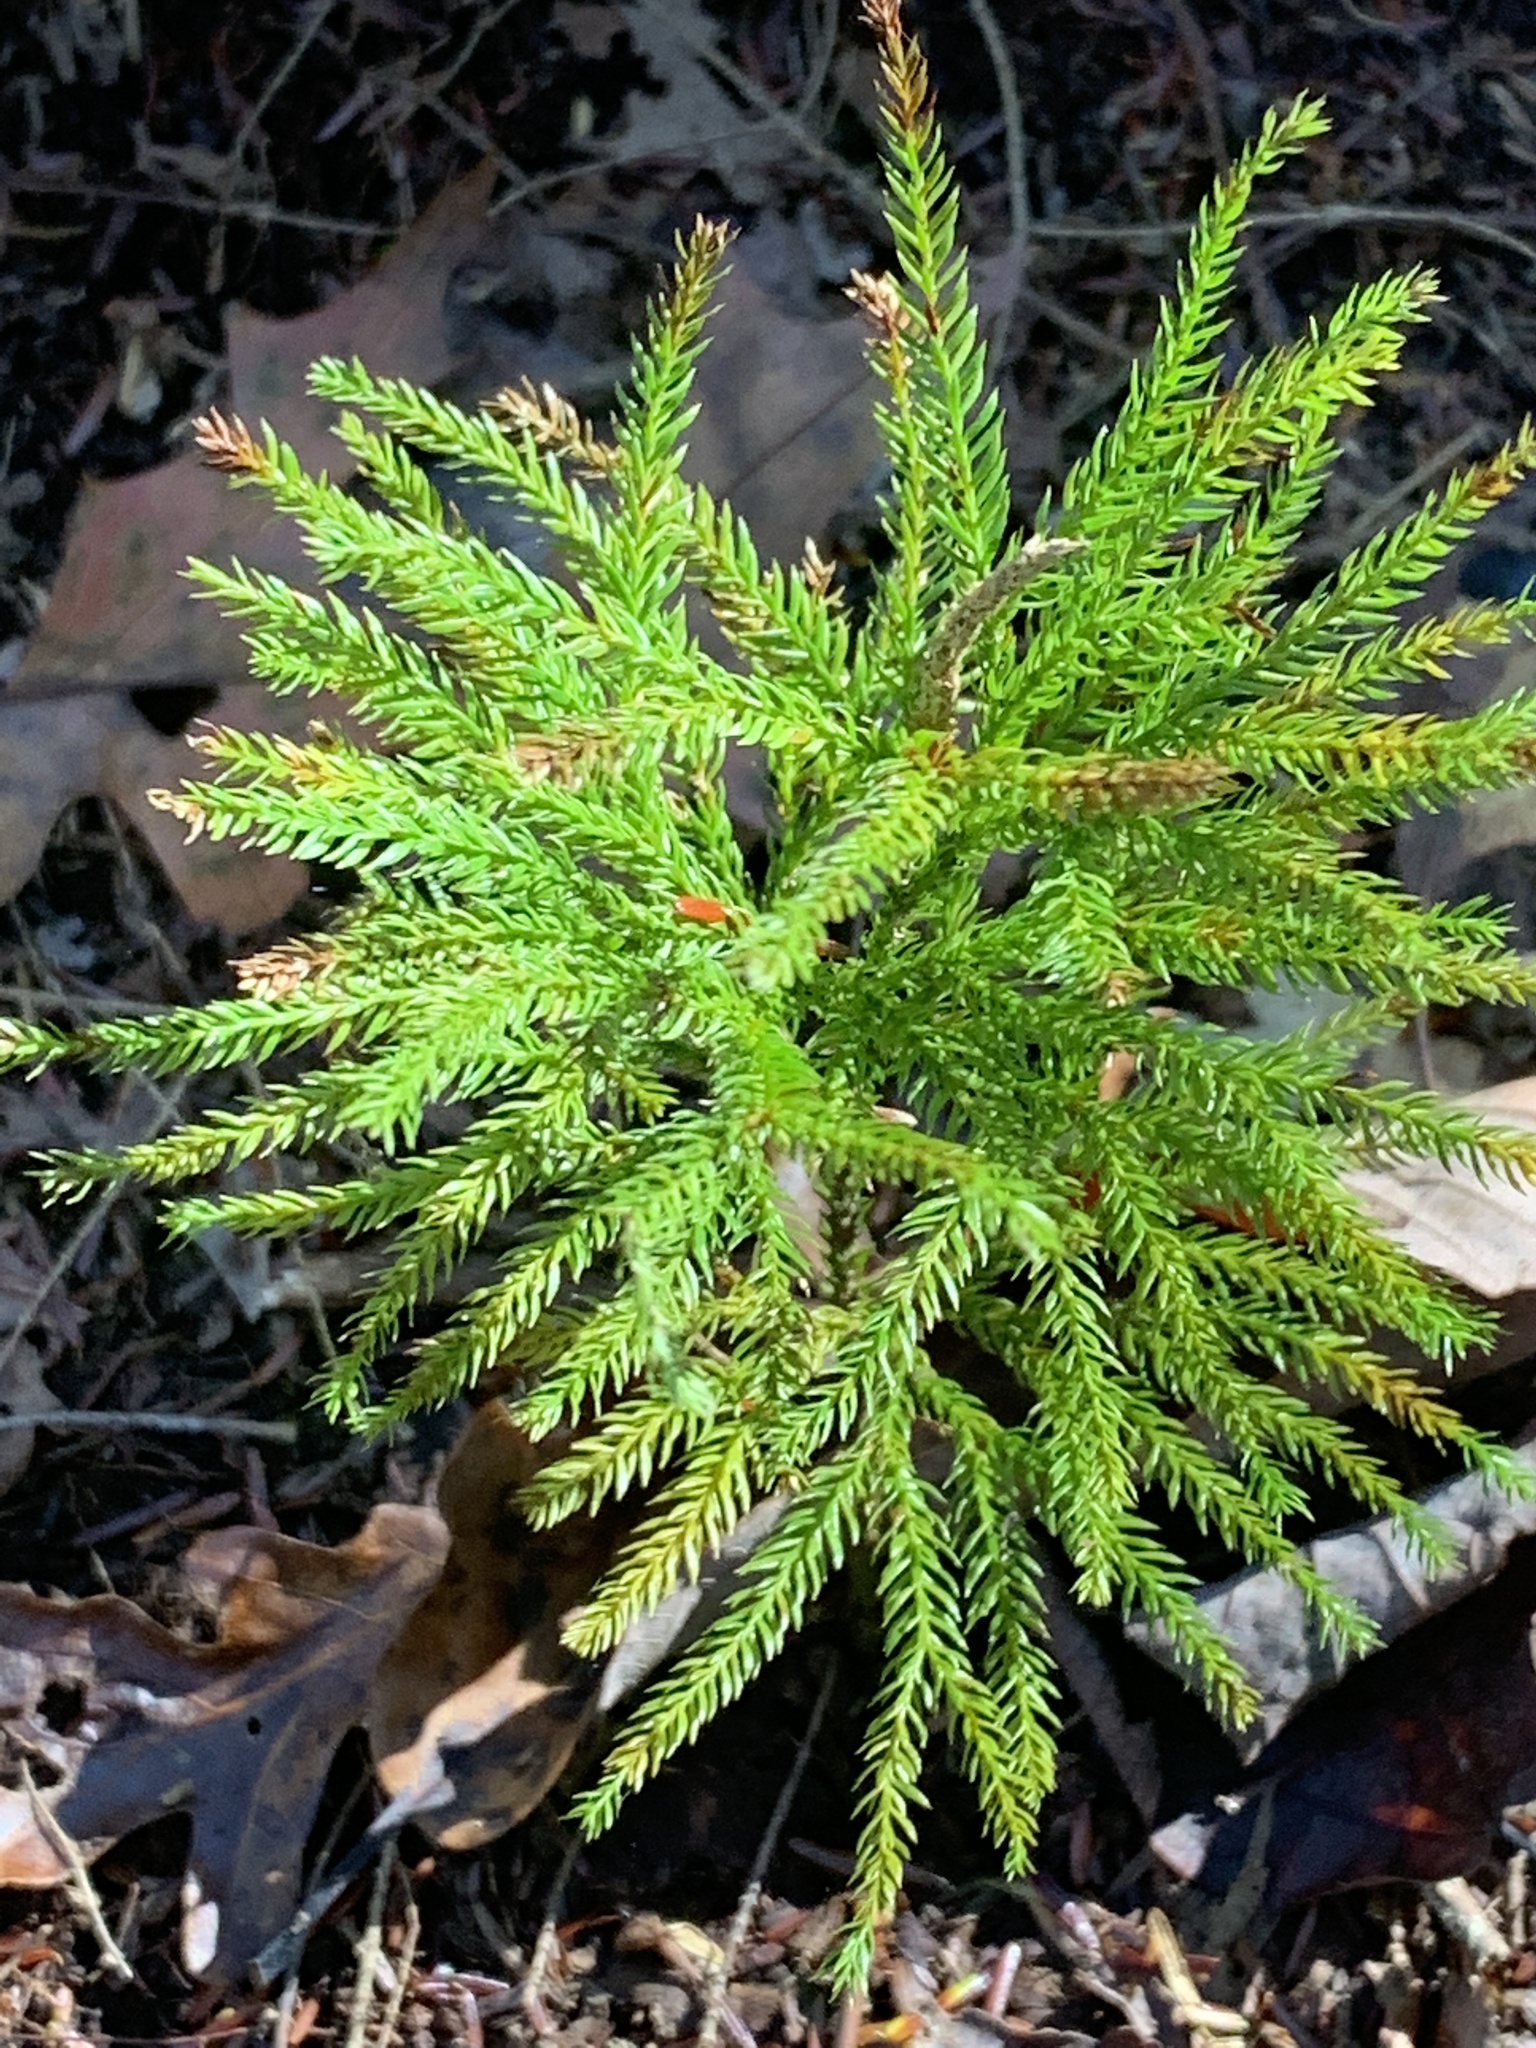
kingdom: Plantae
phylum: Tracheophyta
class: Lycopodiopsida
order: Lycopodiales
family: Lycopodiaceae
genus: Dendrolycopodium
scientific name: Dendrolycopodium obscurum
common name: Common ground-pine
